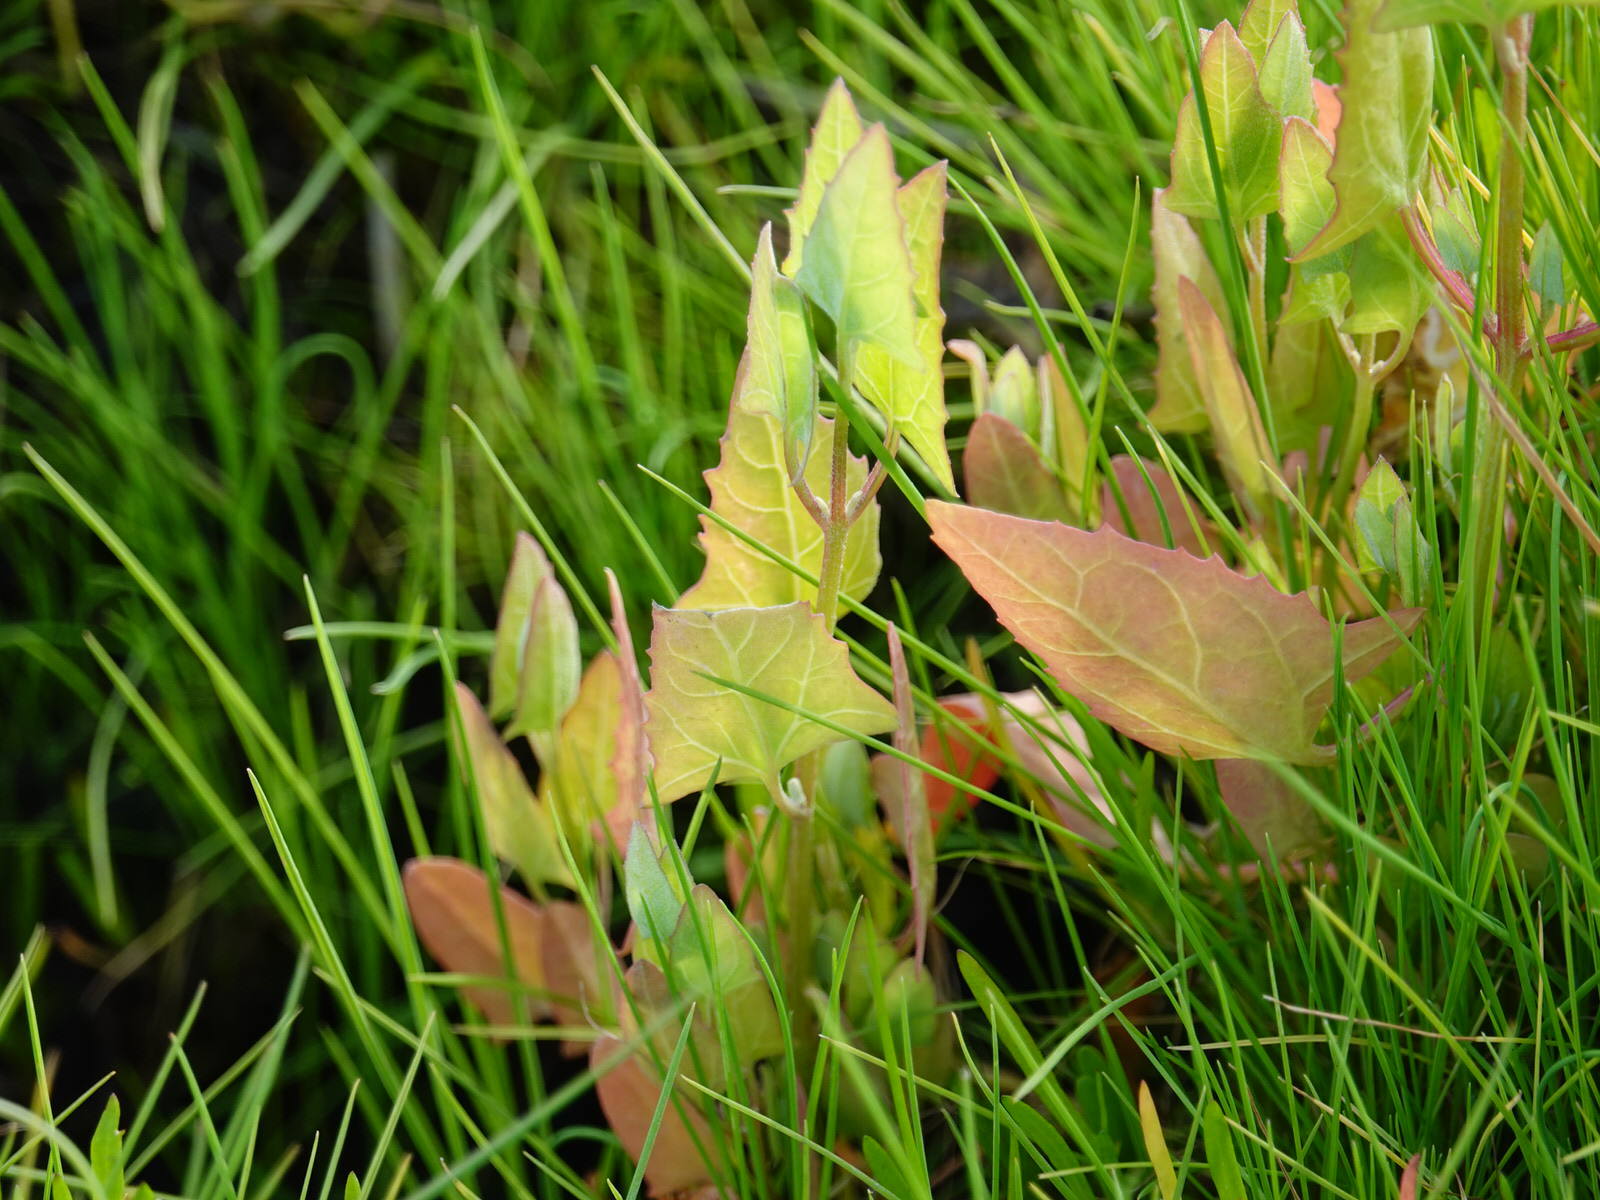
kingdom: Plantae
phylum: Tracheophyta
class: Magnoliopsida
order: Caryophyllales
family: Amaranthaceae
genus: Atriplex
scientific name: Atriplex prostrata
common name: Spear-leaved orache
